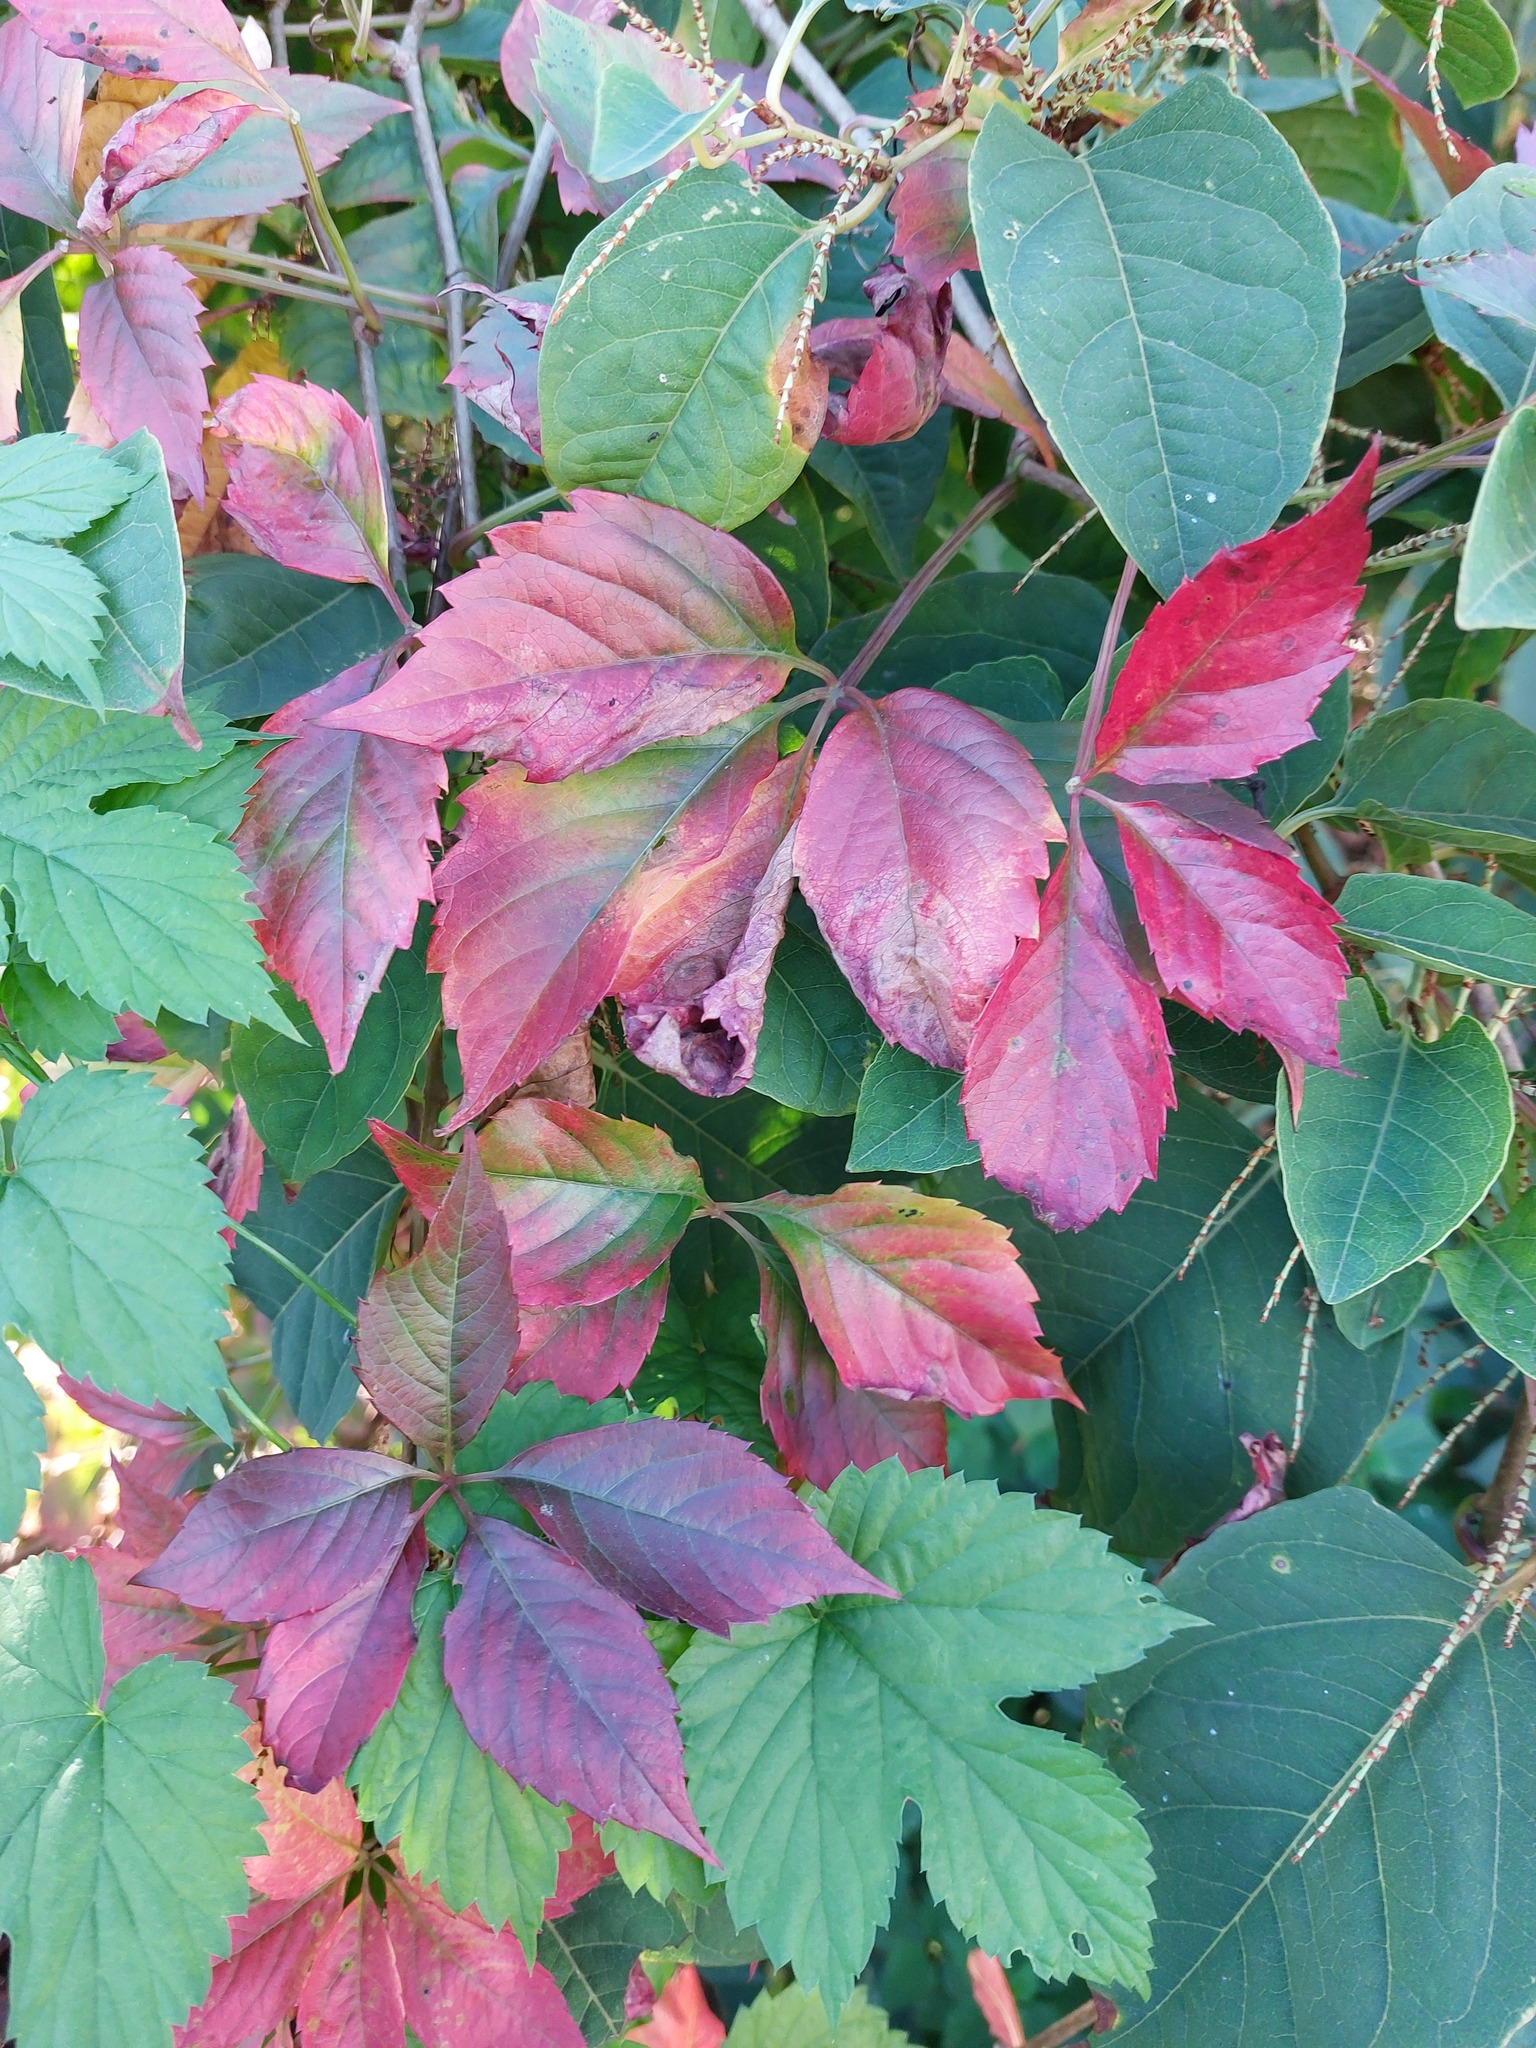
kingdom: Plantae
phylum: Tracheophyta
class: Magnoliopsida
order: Vitales
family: Vitaceae
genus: Parthenocissus
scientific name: Parthenocissus quinquefolia
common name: Virginia-creeper
